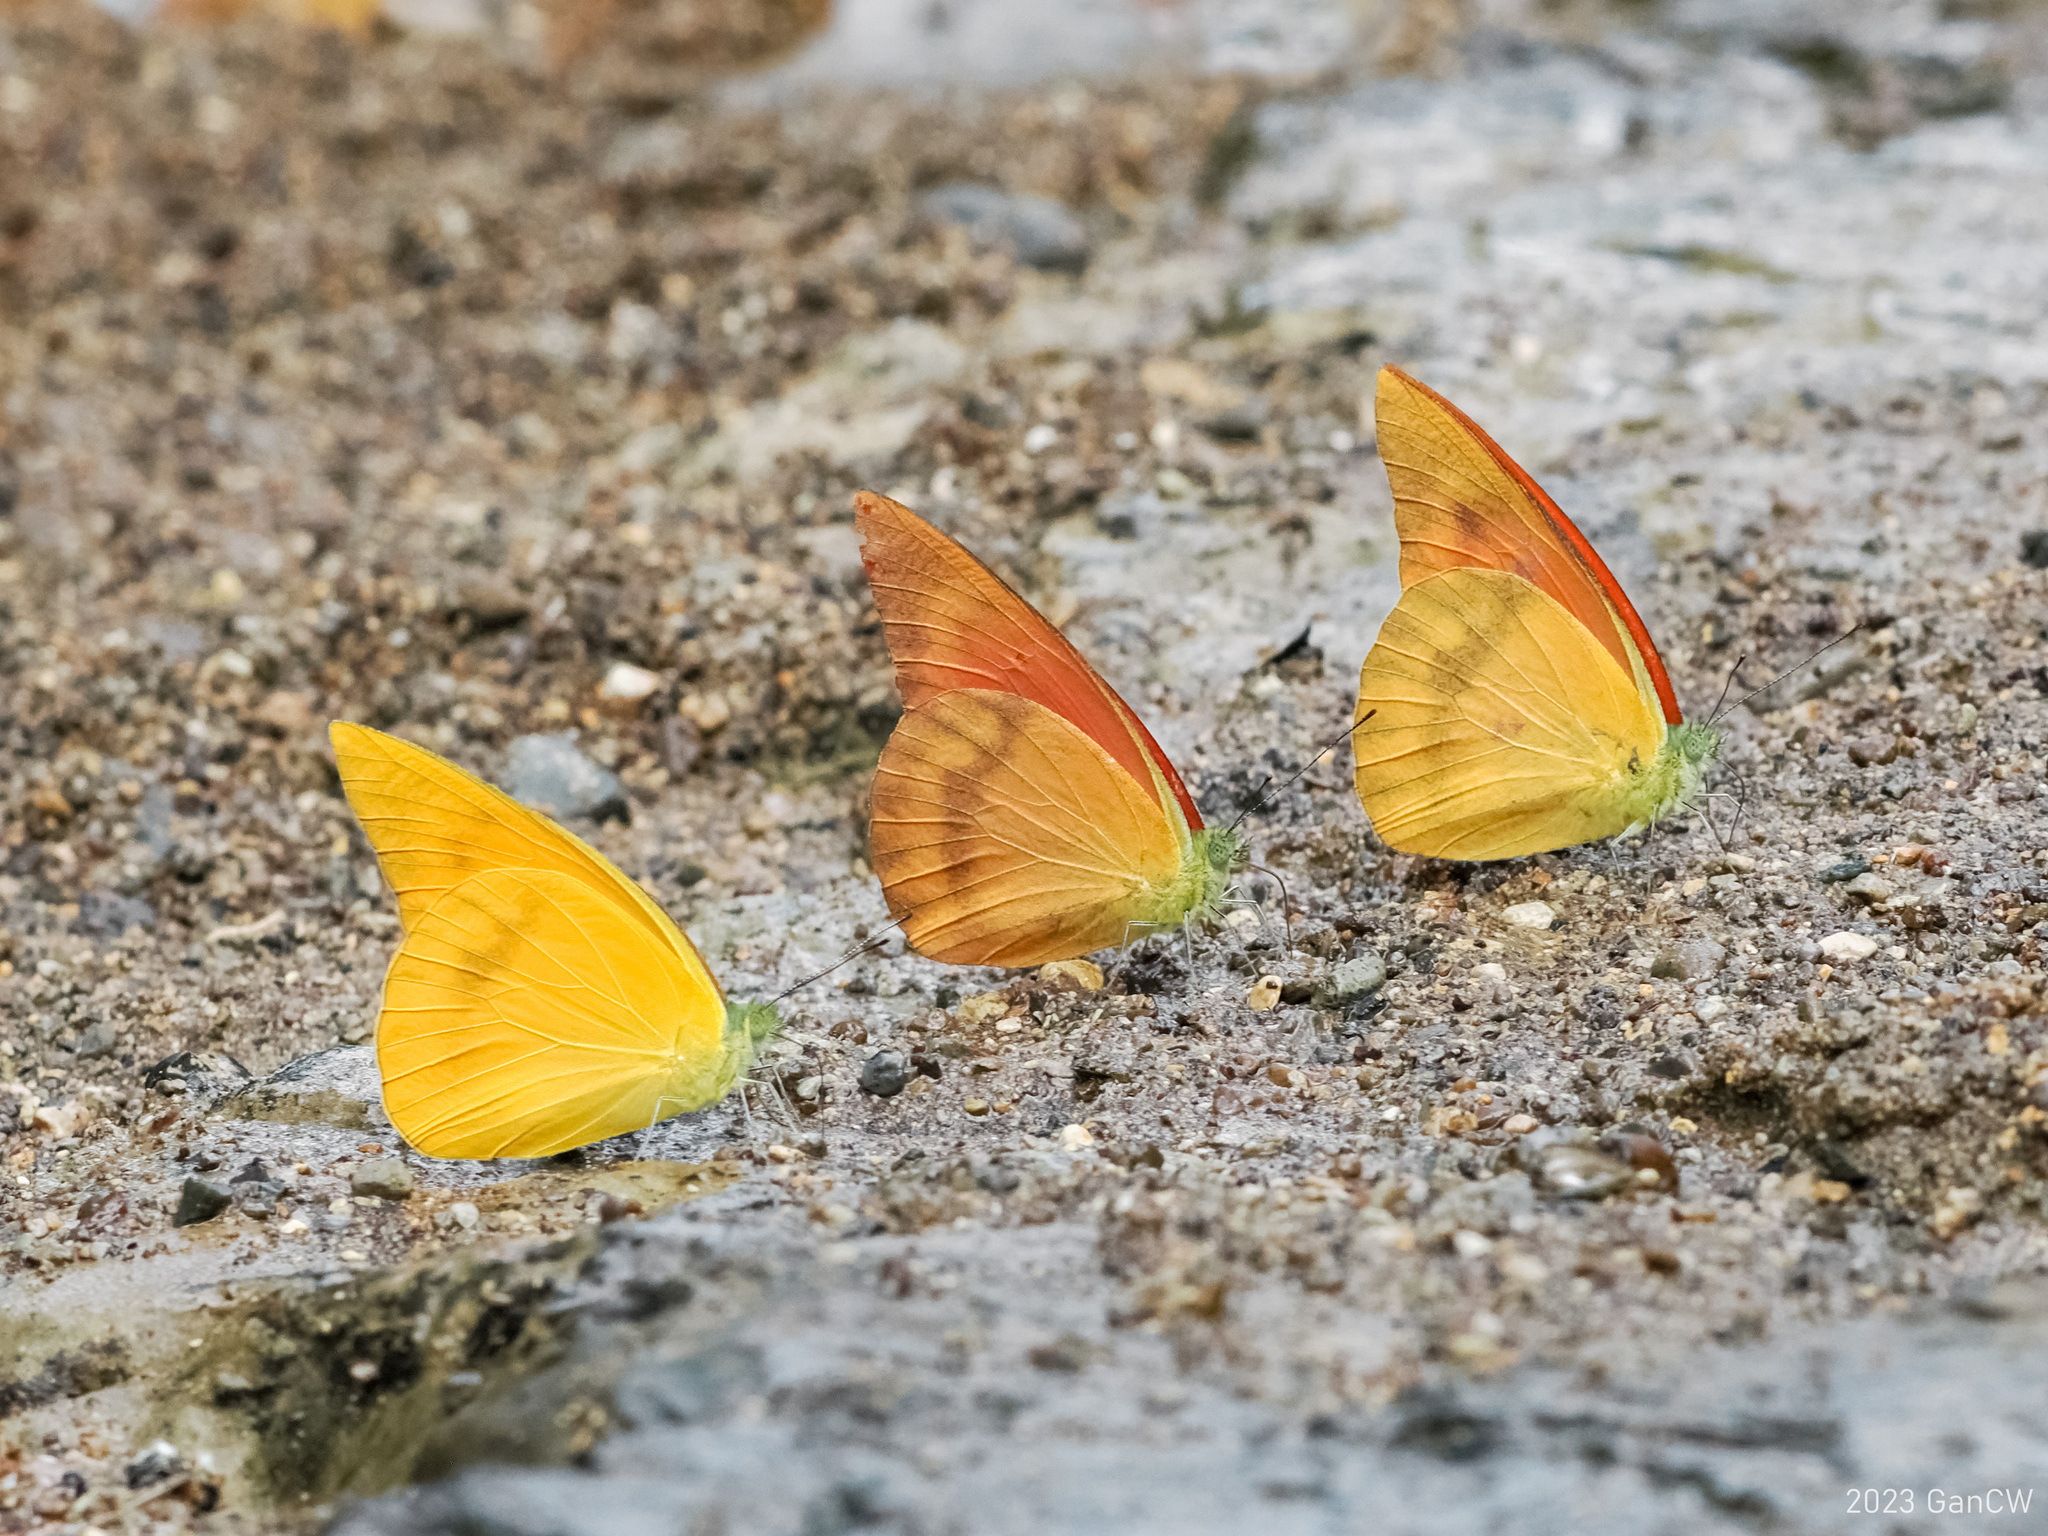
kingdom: Animalia
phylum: Arthropoda
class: Insecta
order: Lepidoptera
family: Pieridae
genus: Appias
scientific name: Appias zarinda
